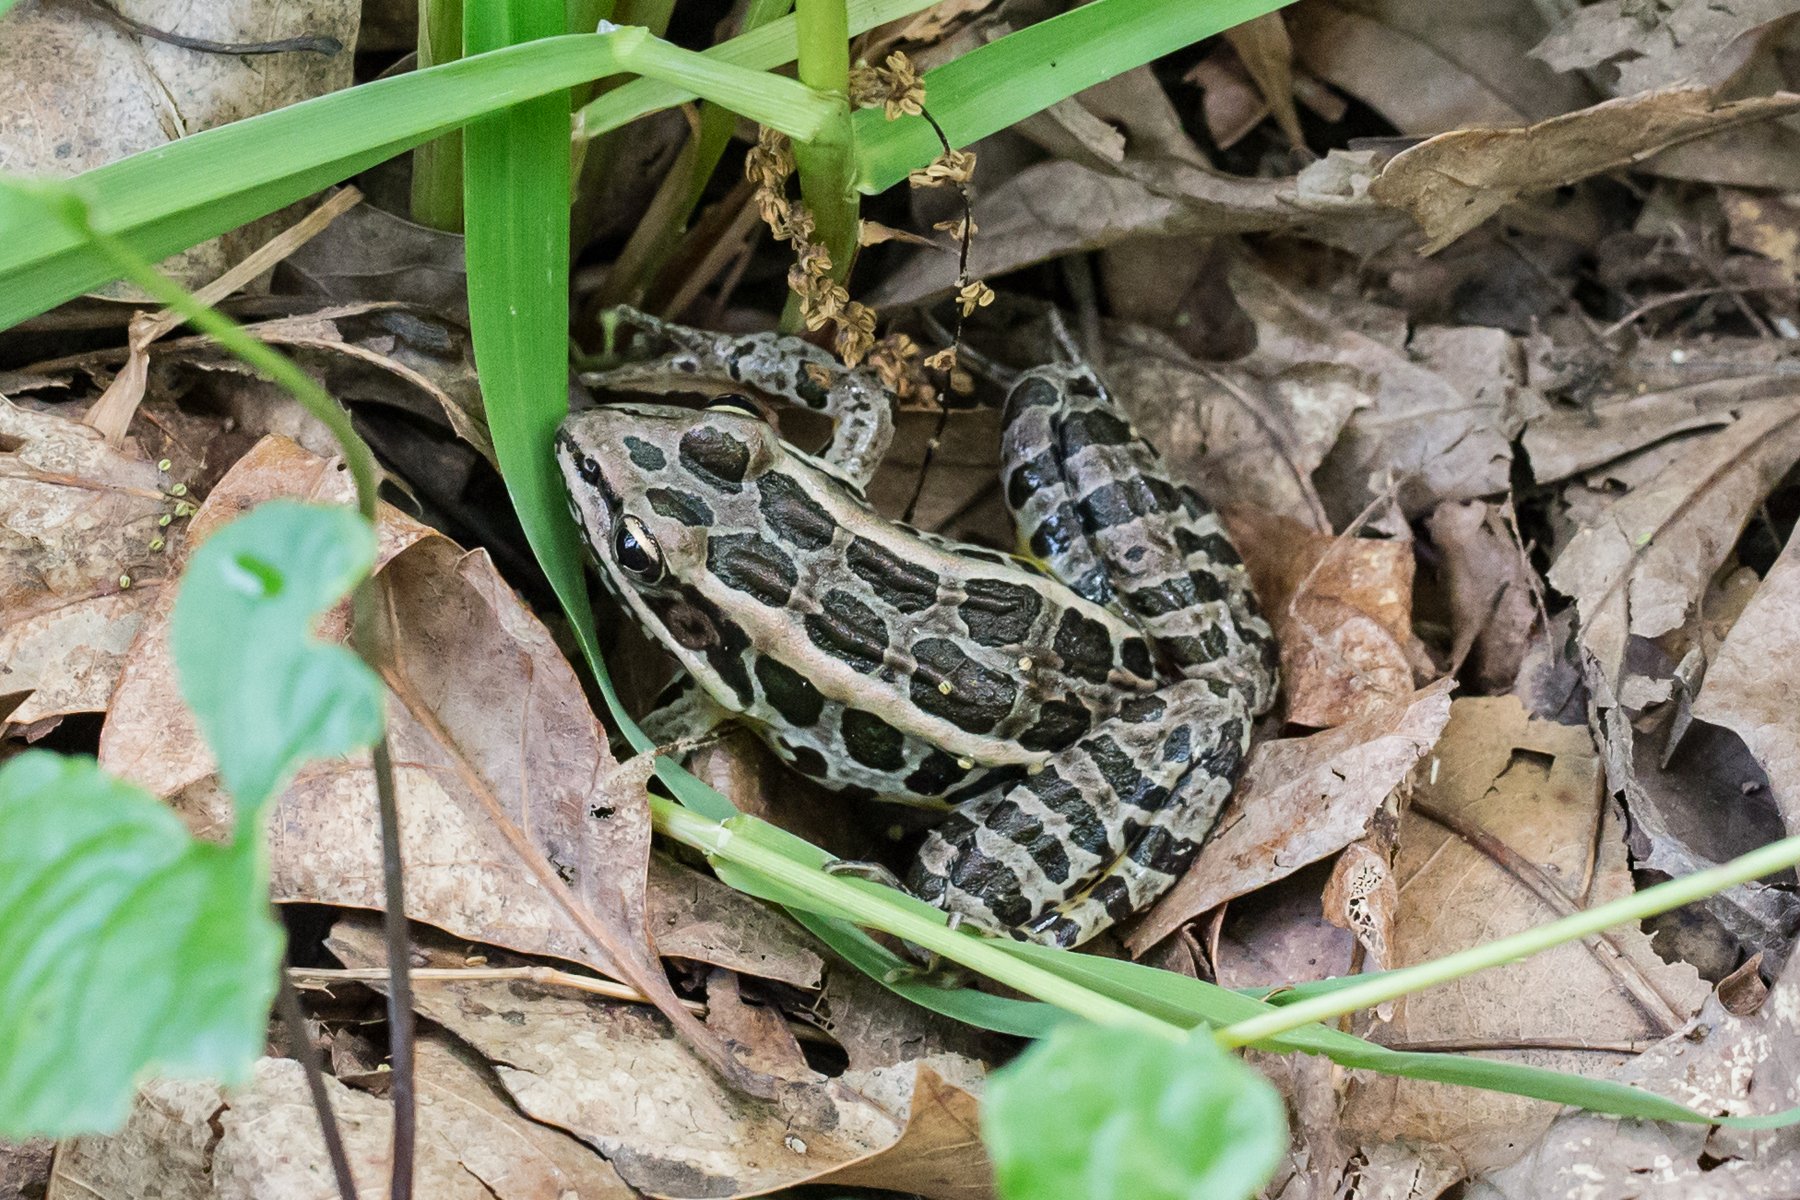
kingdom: Animalia
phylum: Chordata
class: Amphibia
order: Anura
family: Ranidae
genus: Lithobates
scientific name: Lithobates palustris
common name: Pickerel frog
